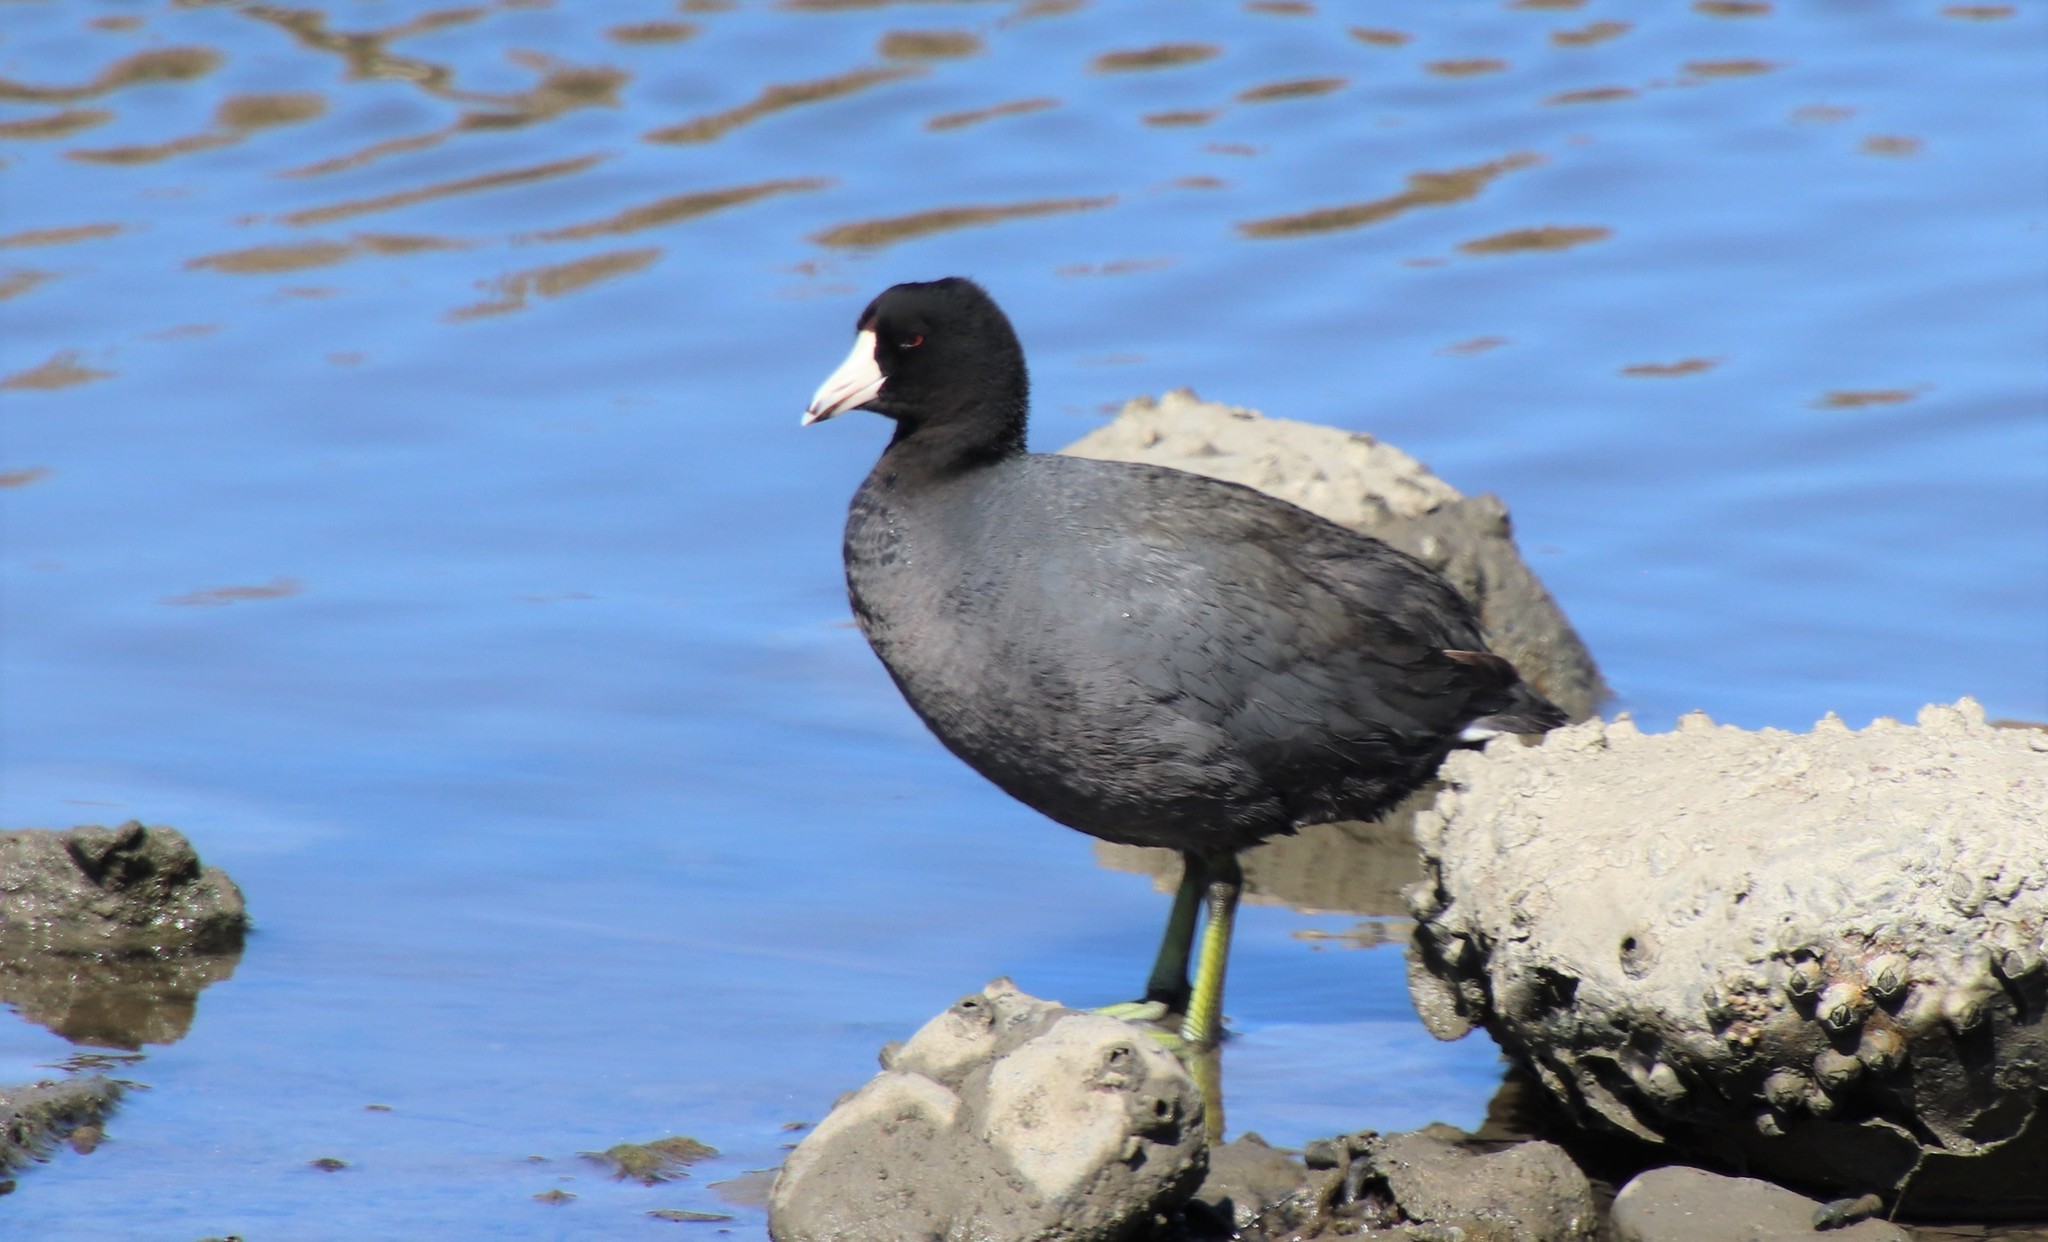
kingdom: Animalia
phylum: Chordata
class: Aves
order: Gruiformes
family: Rallidae
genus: Fulica
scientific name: Fulica americana
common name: American coot
